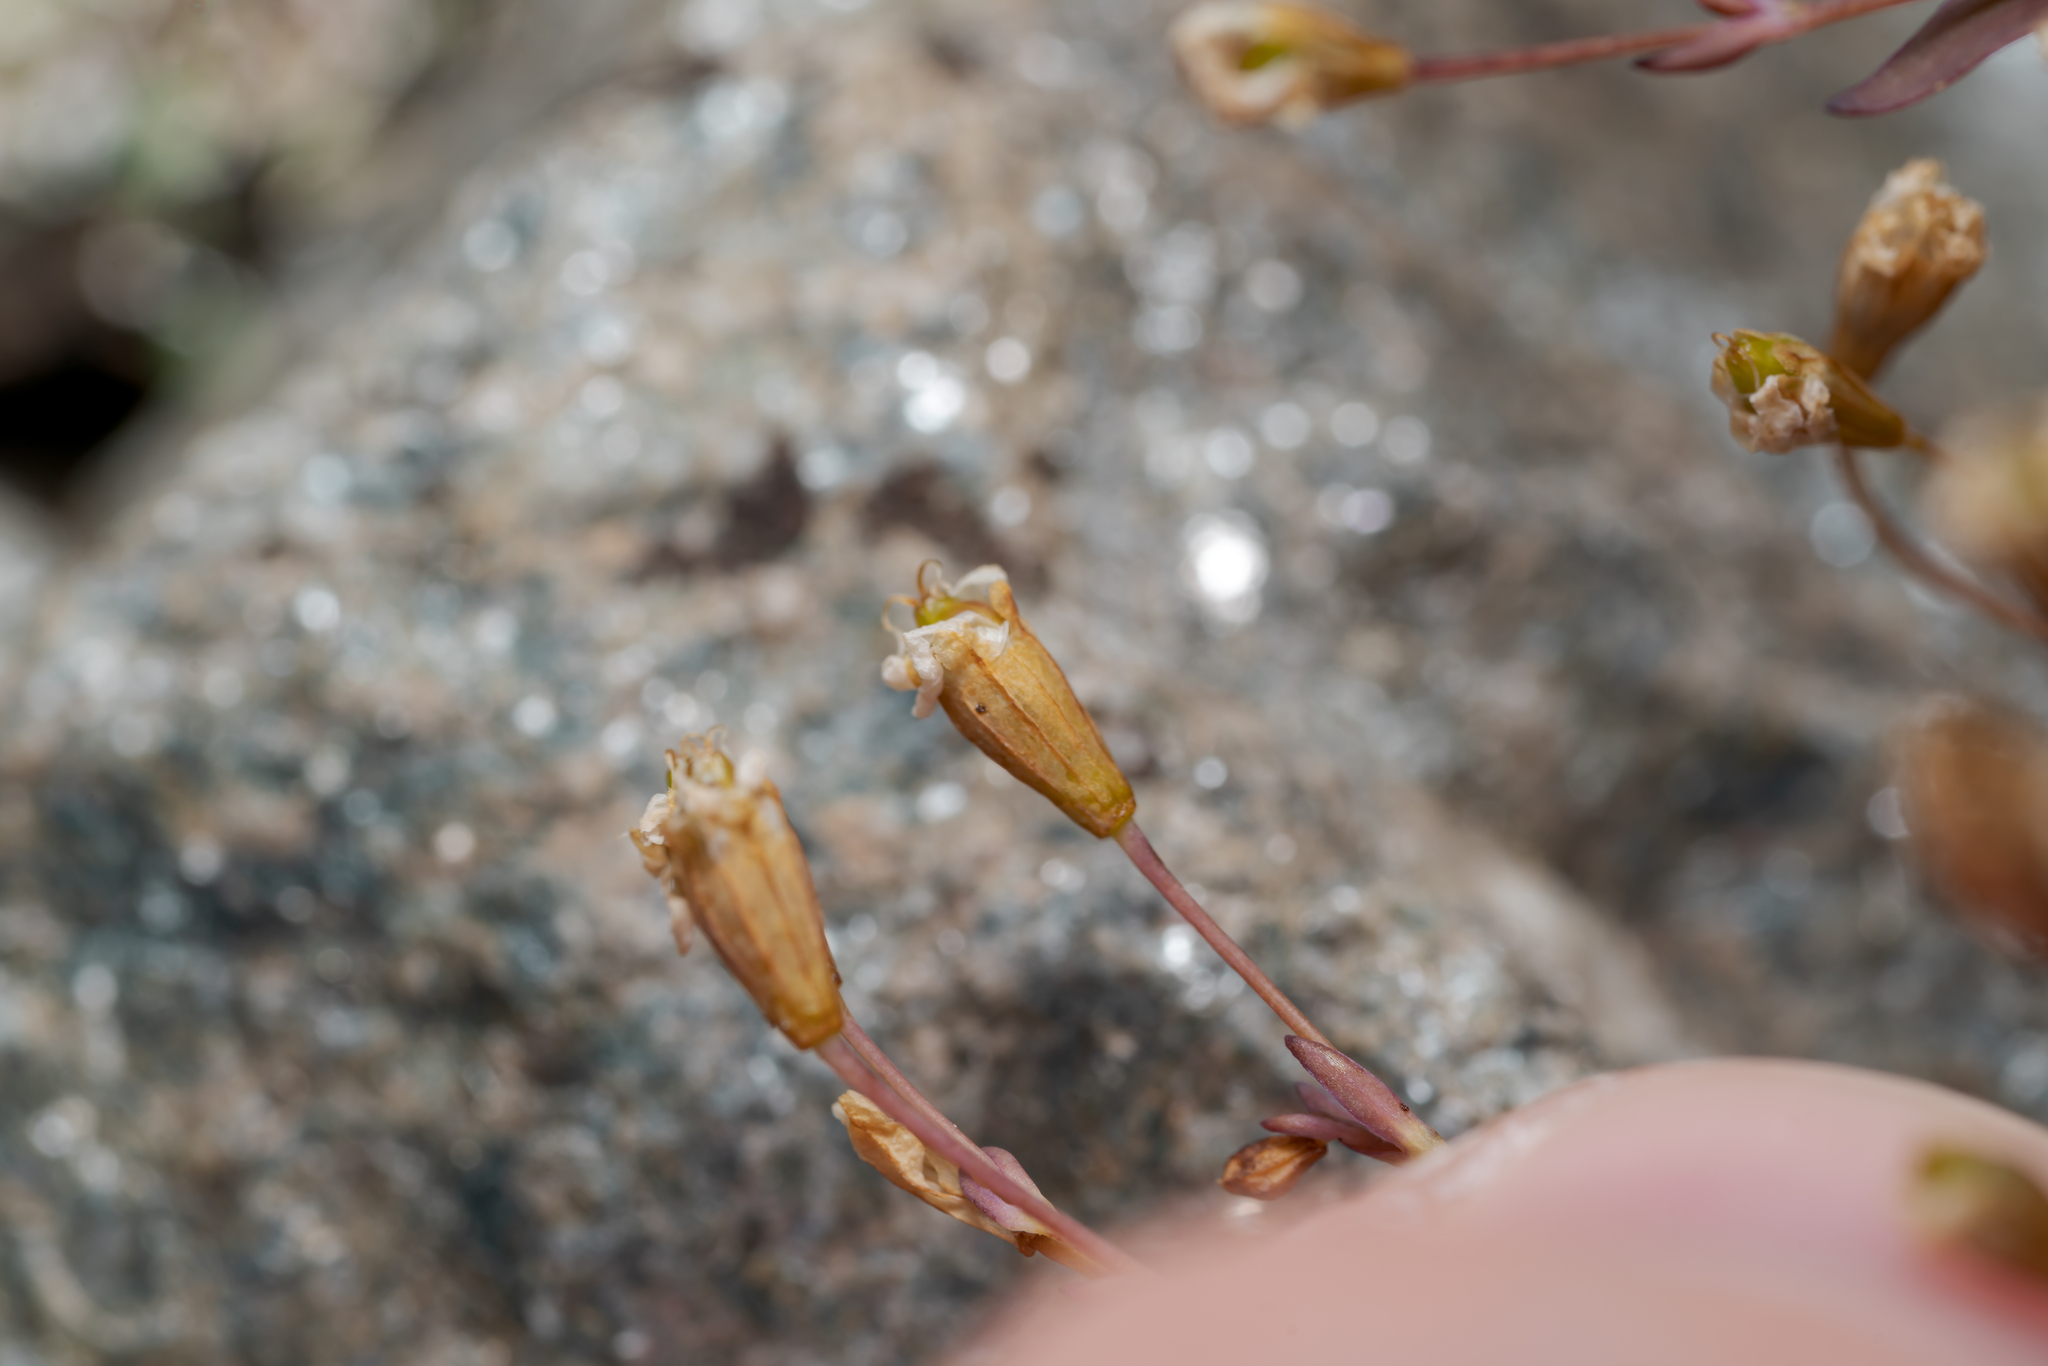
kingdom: Plantae
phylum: Tracheophyta
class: Magnoliopsida
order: Caryophyllales
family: Caryophyllaceae
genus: Atocion
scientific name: Atocion rupestre
